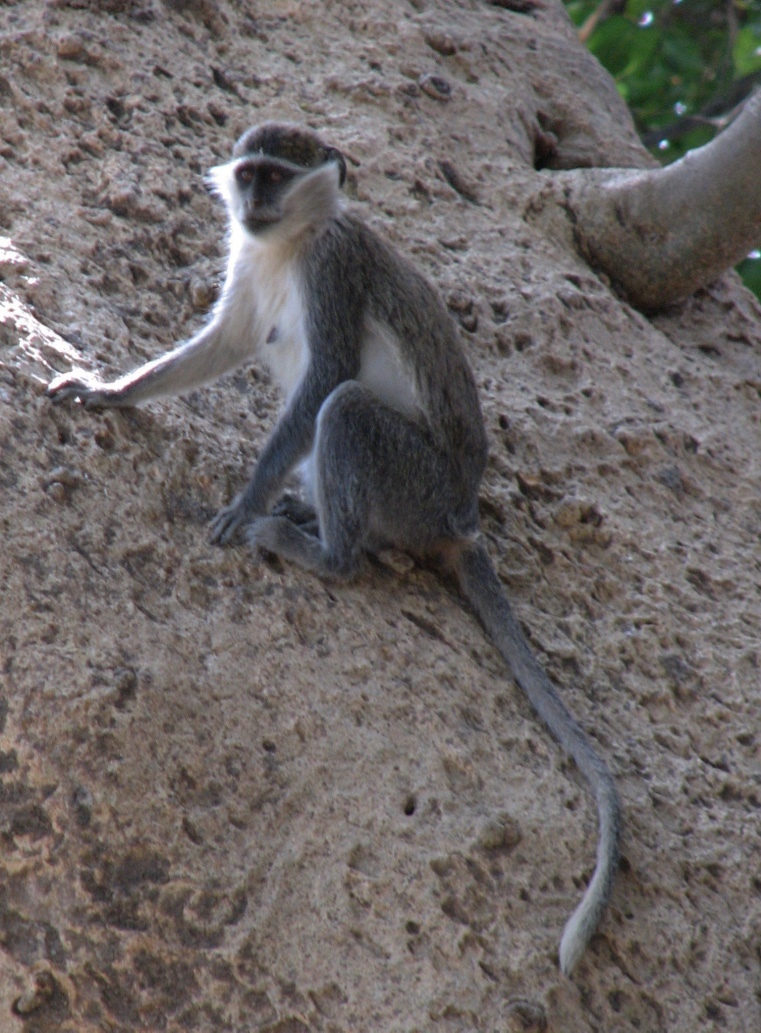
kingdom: Animalia
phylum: Chordata
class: Mammalia
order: Primates
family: Cercopithecidae
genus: Chlorocebus
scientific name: Chlorocebus aethiops
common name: Grivet
